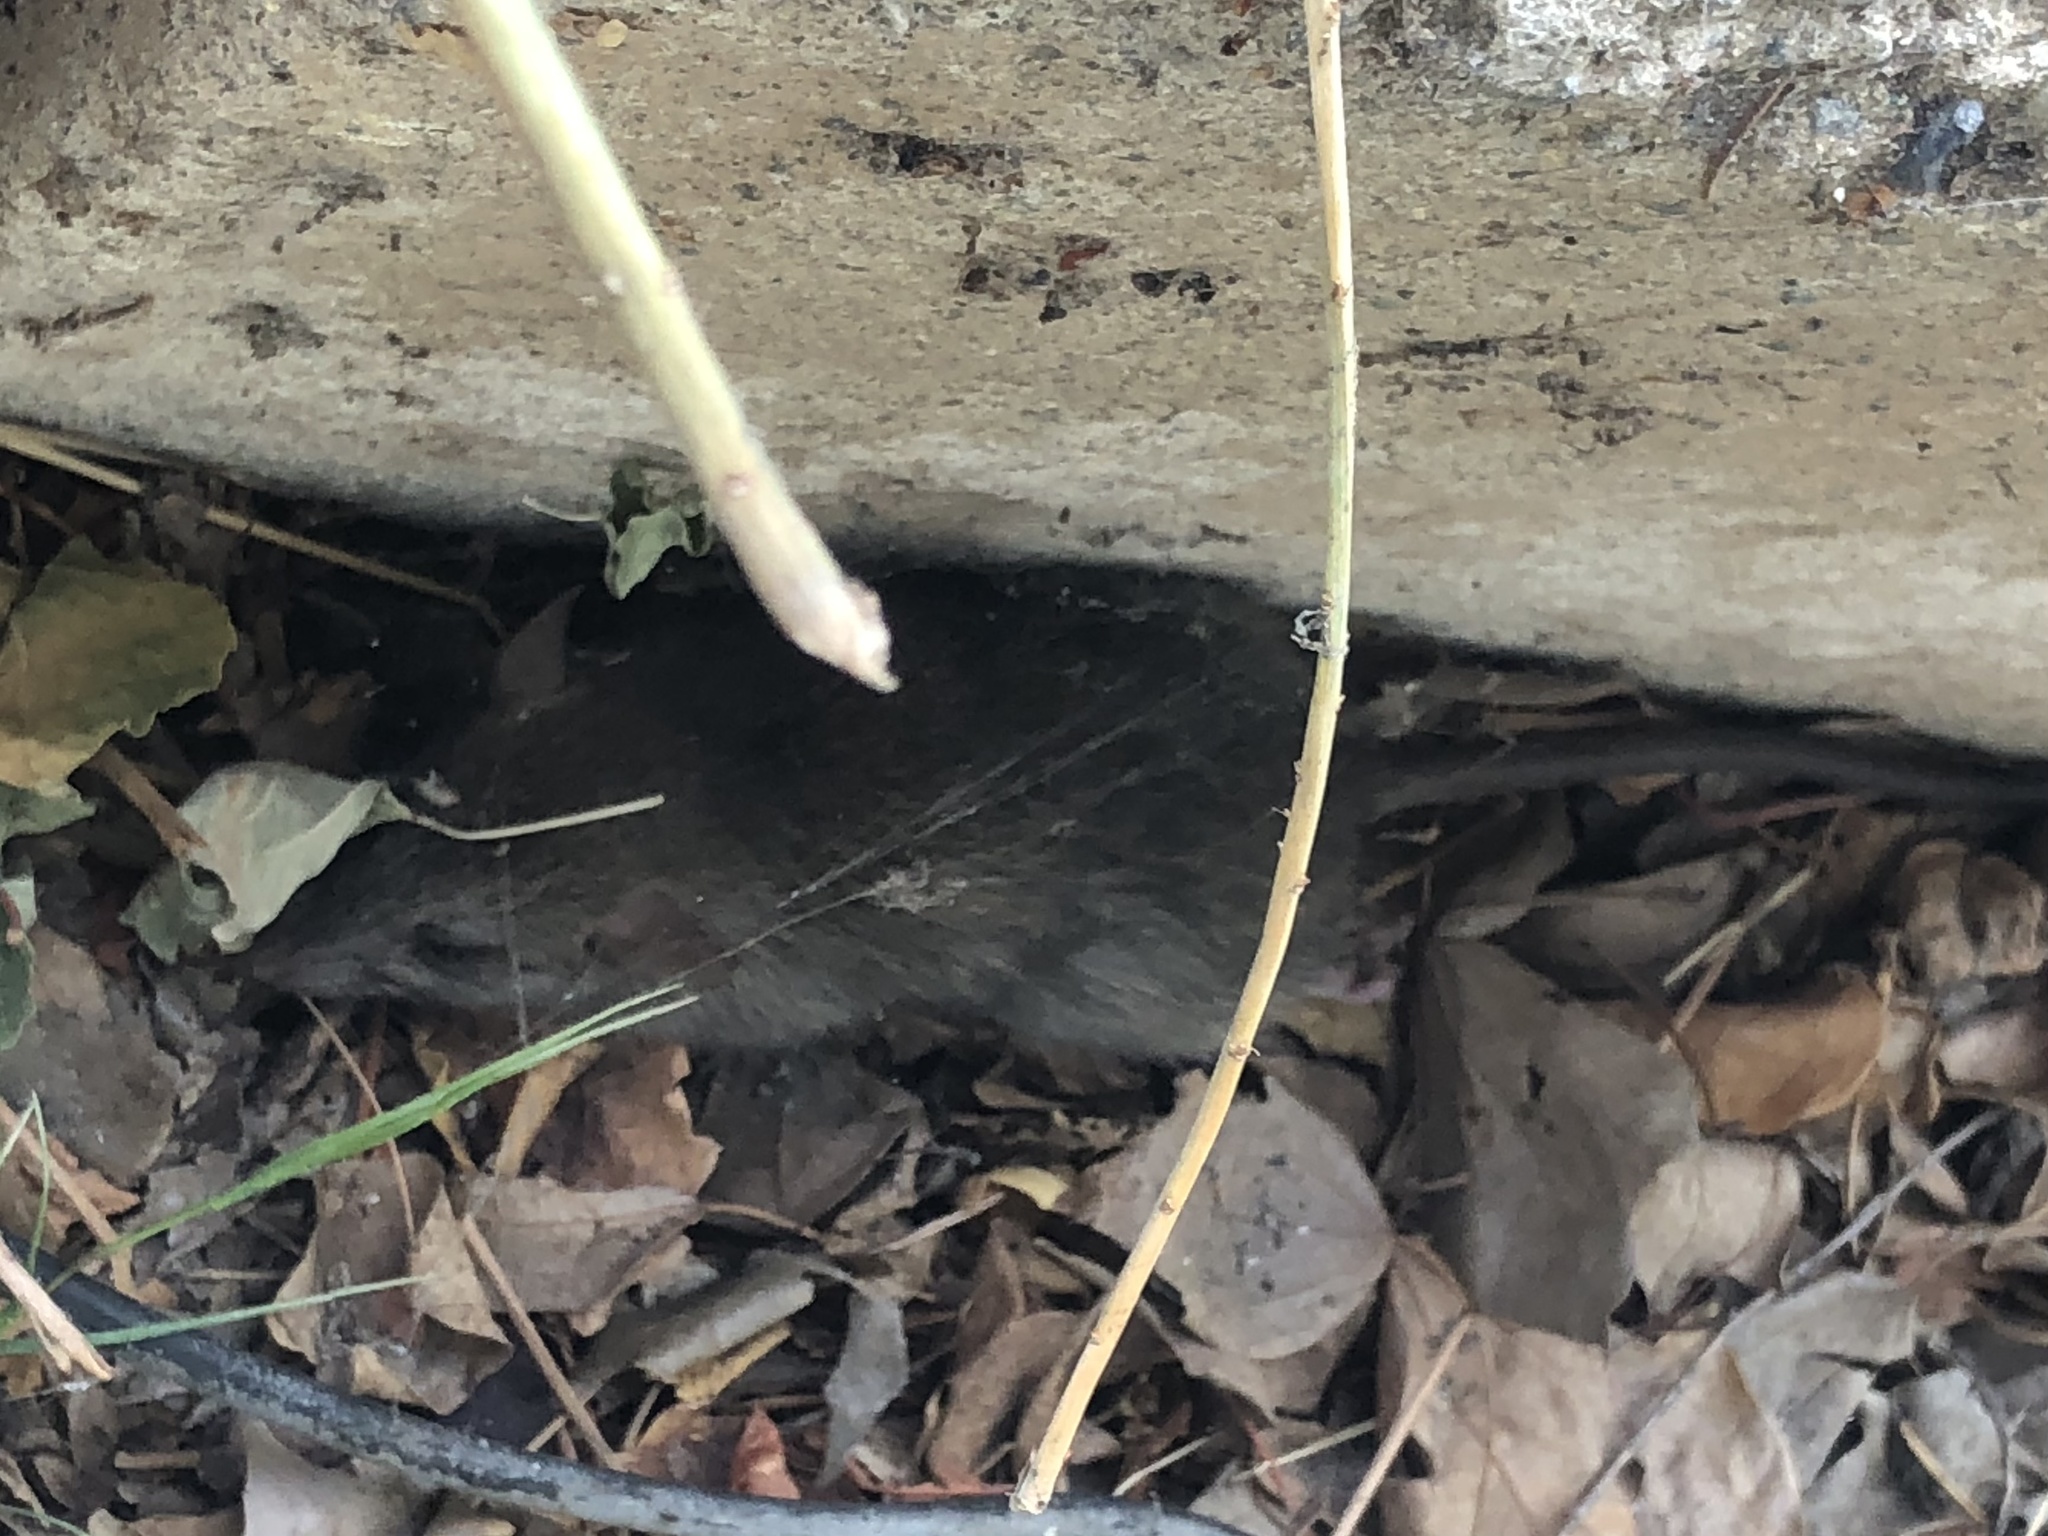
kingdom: Animalia
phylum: Chordata
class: Mammalia
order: Rodentia
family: Muridae
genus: Rattus
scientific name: Rattus norvegicus
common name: Brown rat
